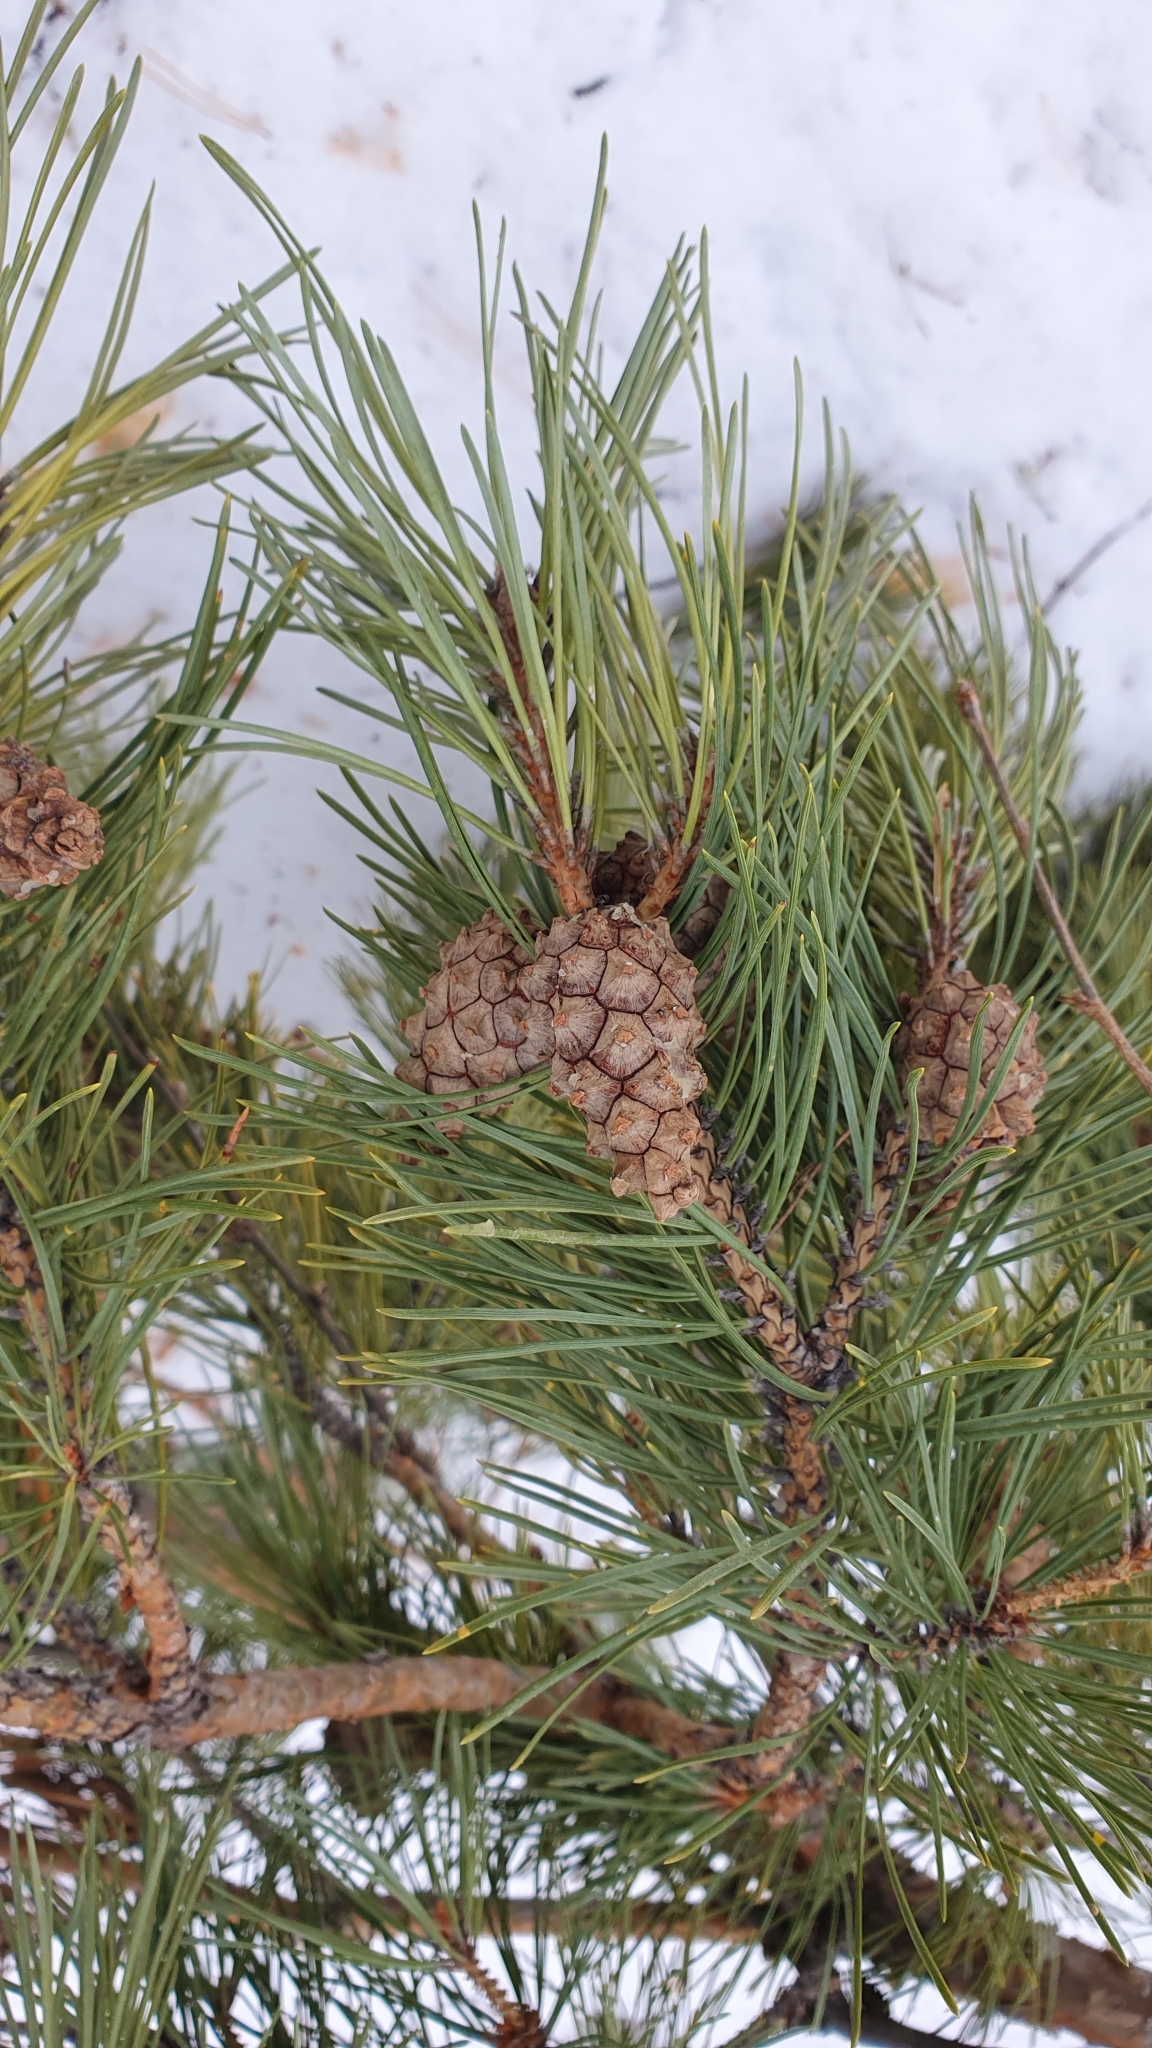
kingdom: Plantae
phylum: Tracheophyta
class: Pinopsida
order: Pinales
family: Pinaceae
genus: Pinus
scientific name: Pinus sylvestris
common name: Scots pine
